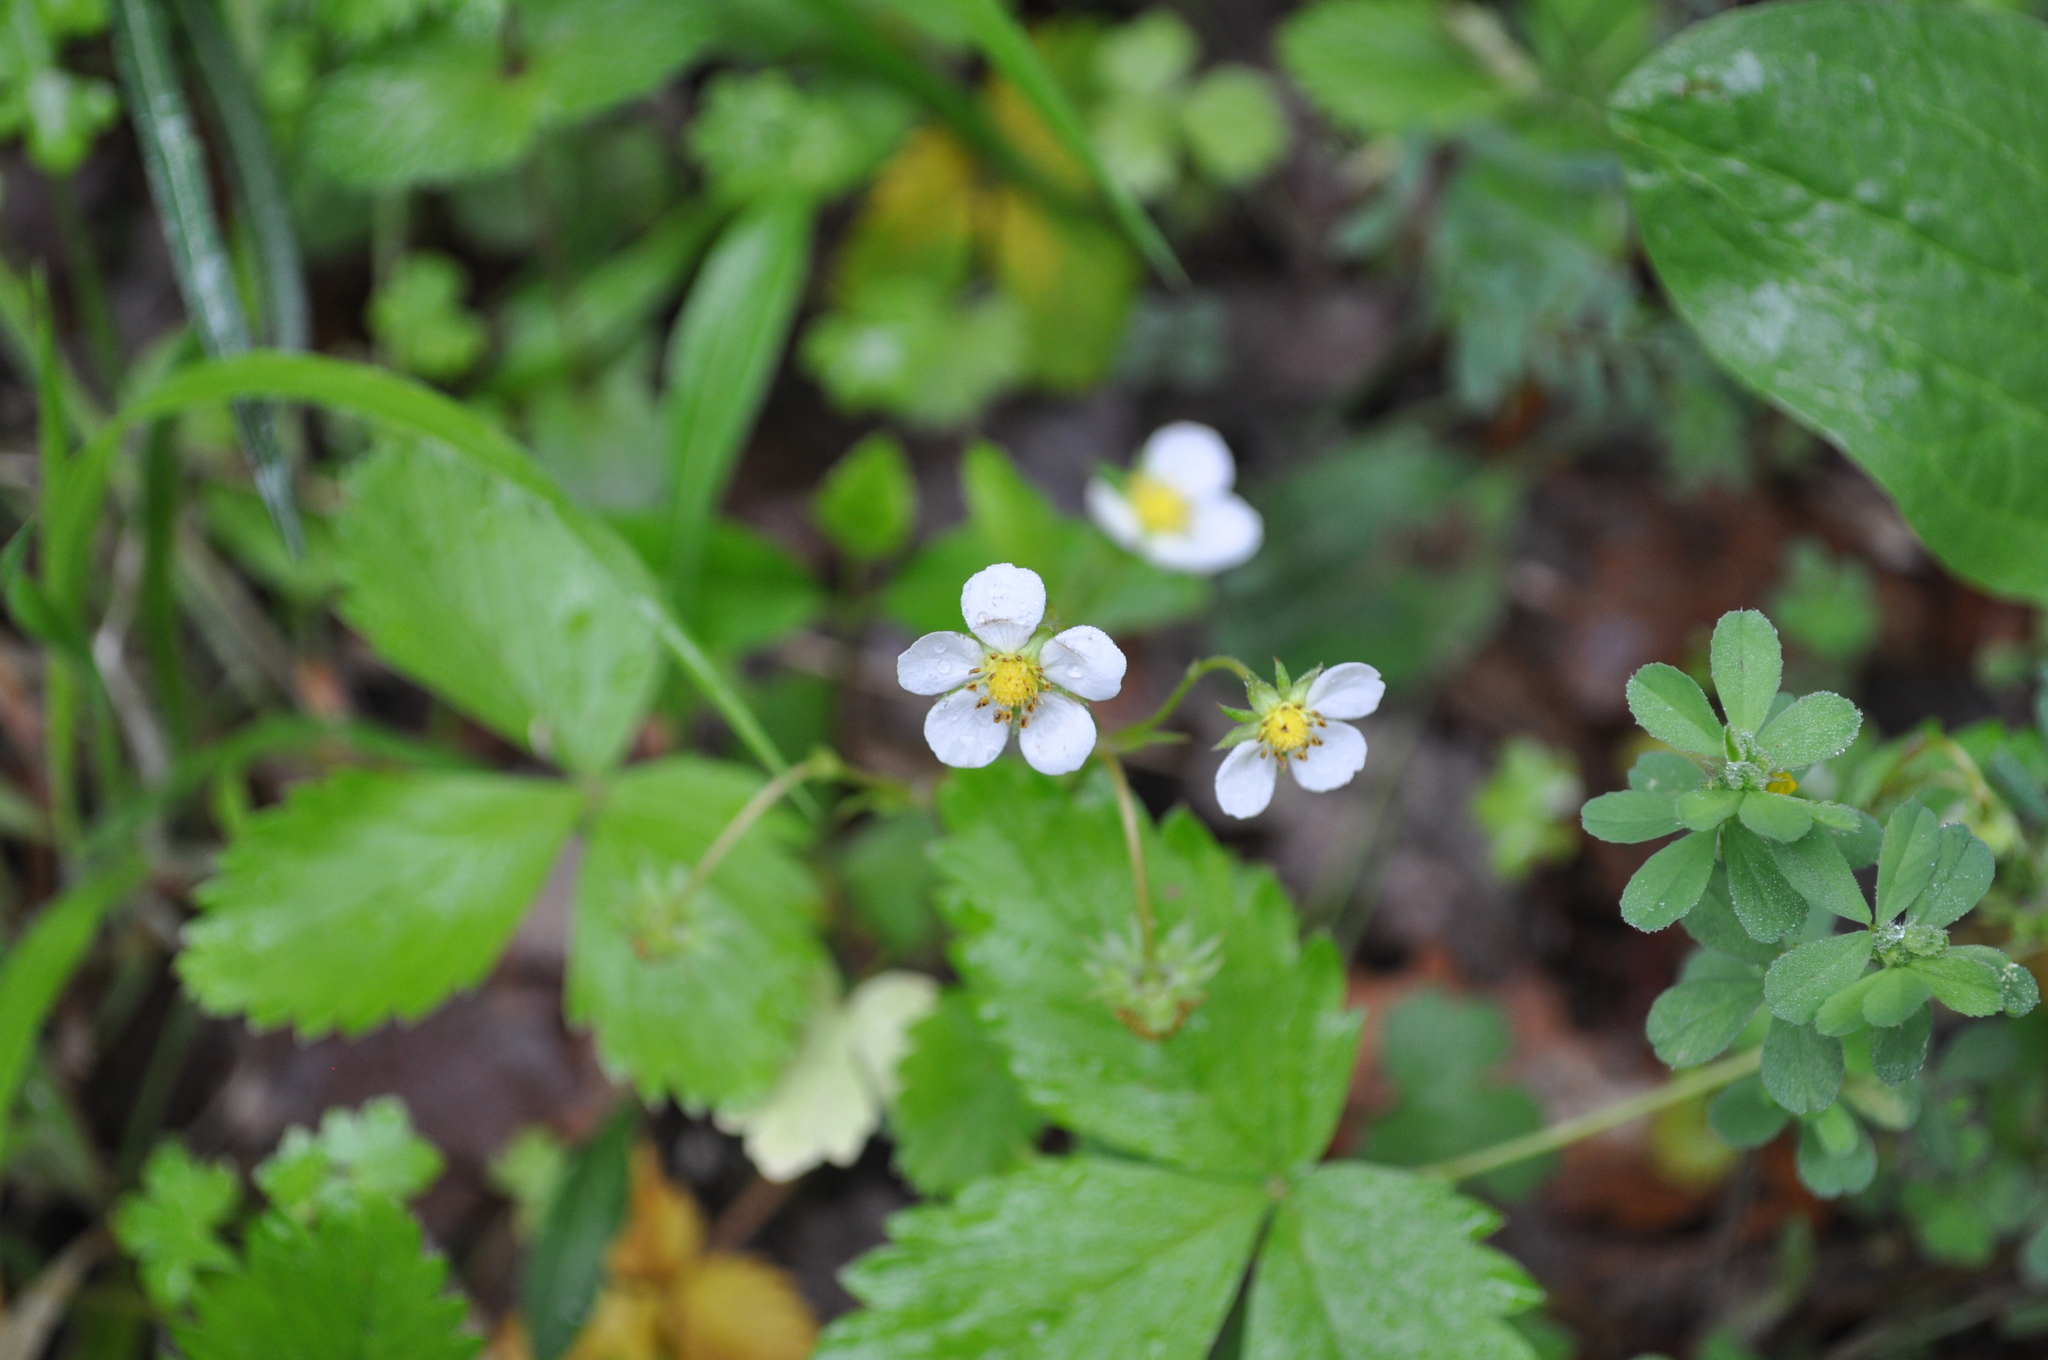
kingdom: Plantae
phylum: Tracheophyta
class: Magnoliopsida
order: Rosales
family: Rosaceae
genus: Fragaria
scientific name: Fragaria vesca
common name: Wild strawberry
